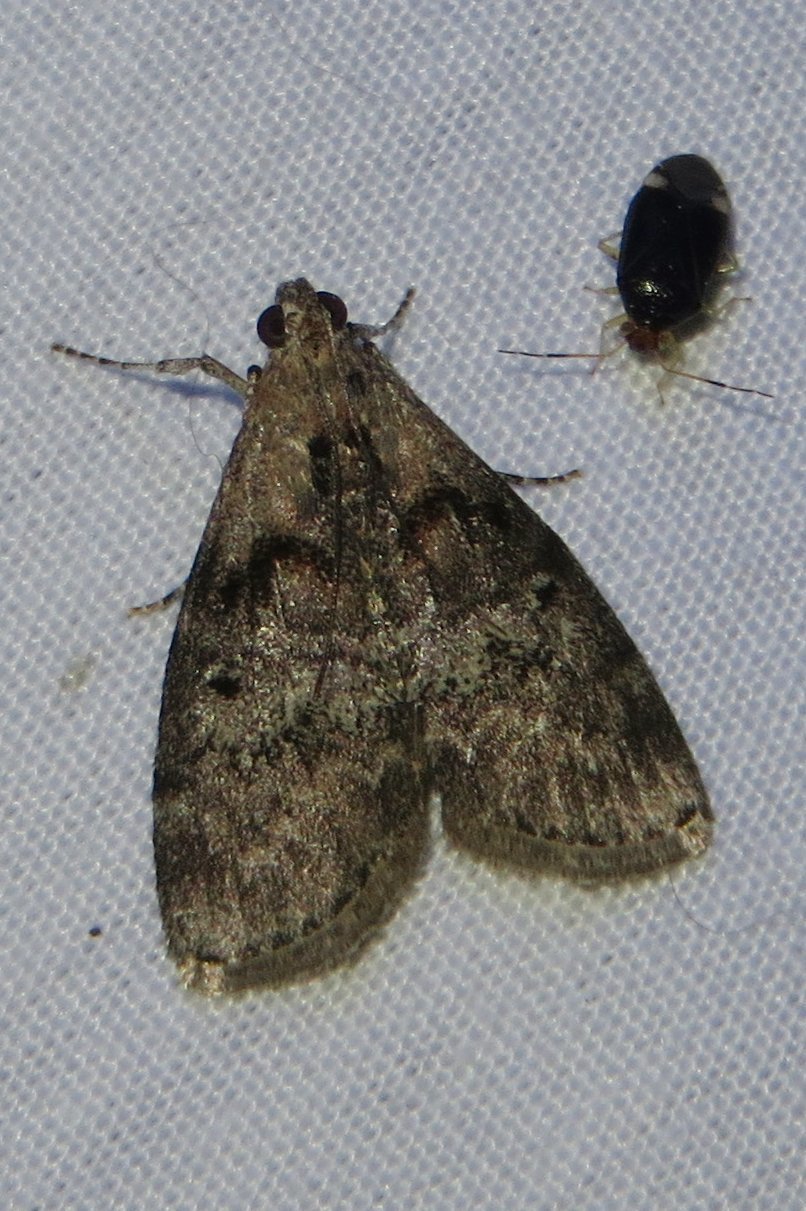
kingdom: Animalia
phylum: Arthropoda
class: Insecta
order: Lepidoptera
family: Pyralidae
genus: Pococera
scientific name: Pococera expandens
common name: Striped oak webworm moth
